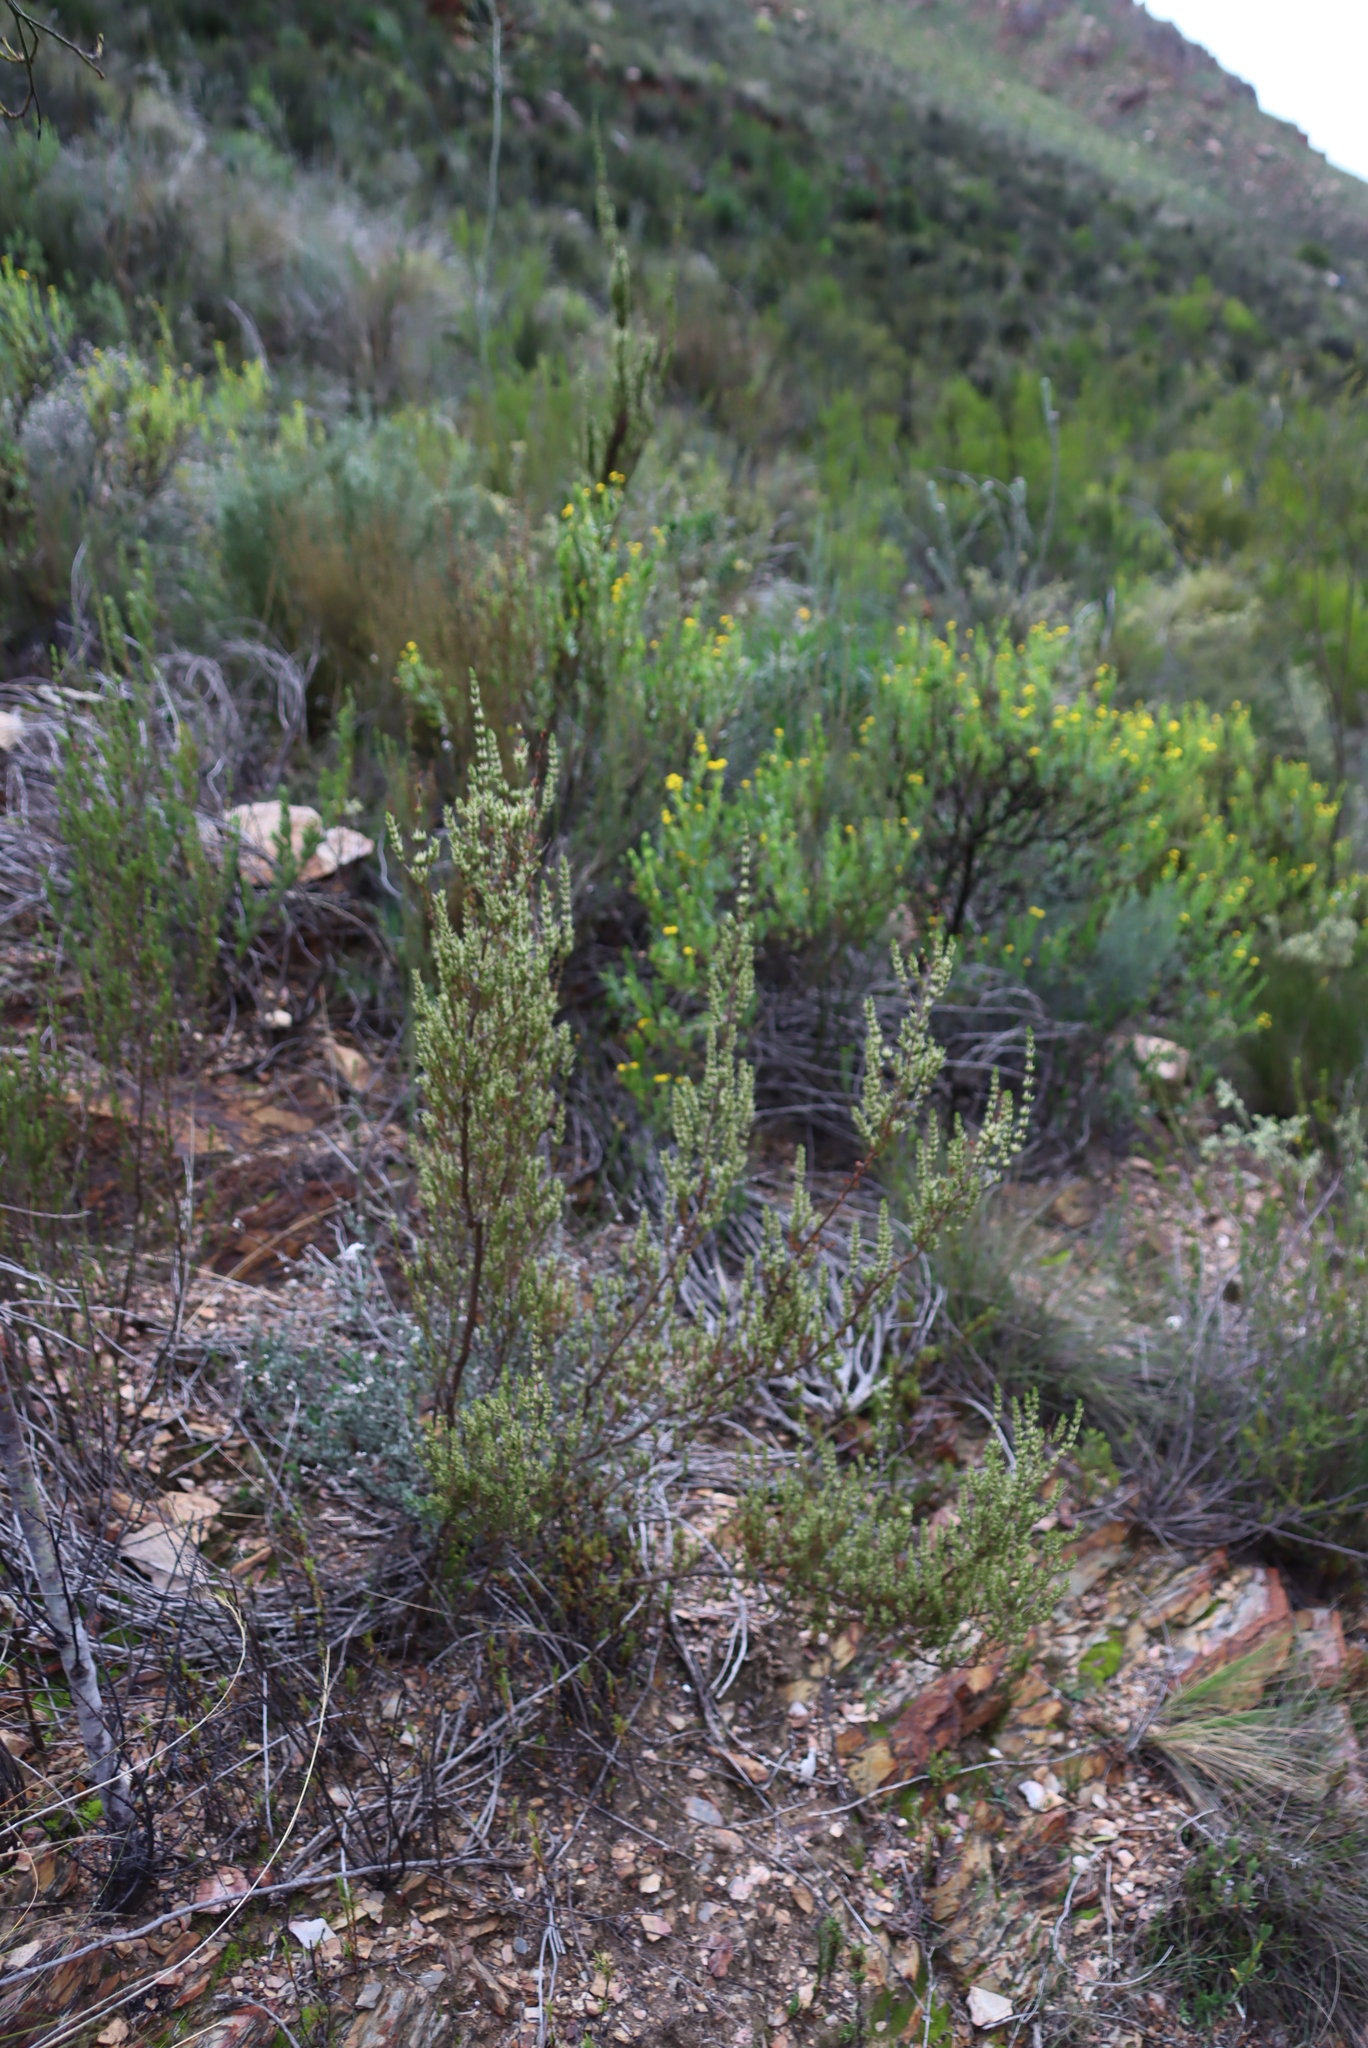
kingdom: Plantae
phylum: Tracheophyta
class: Magnoliopsida
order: Gentianales
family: Rubiaceae
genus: Anthospermum
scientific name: Anthospermum aethiopicum
